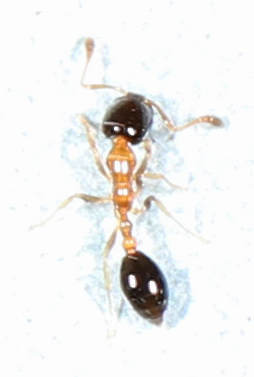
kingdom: Animalia
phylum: Arthropoda
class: Insecta
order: Hymenoptera
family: Formicidae
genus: Monomorium
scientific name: Monomorium floricola
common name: Bicolored trailing ant
